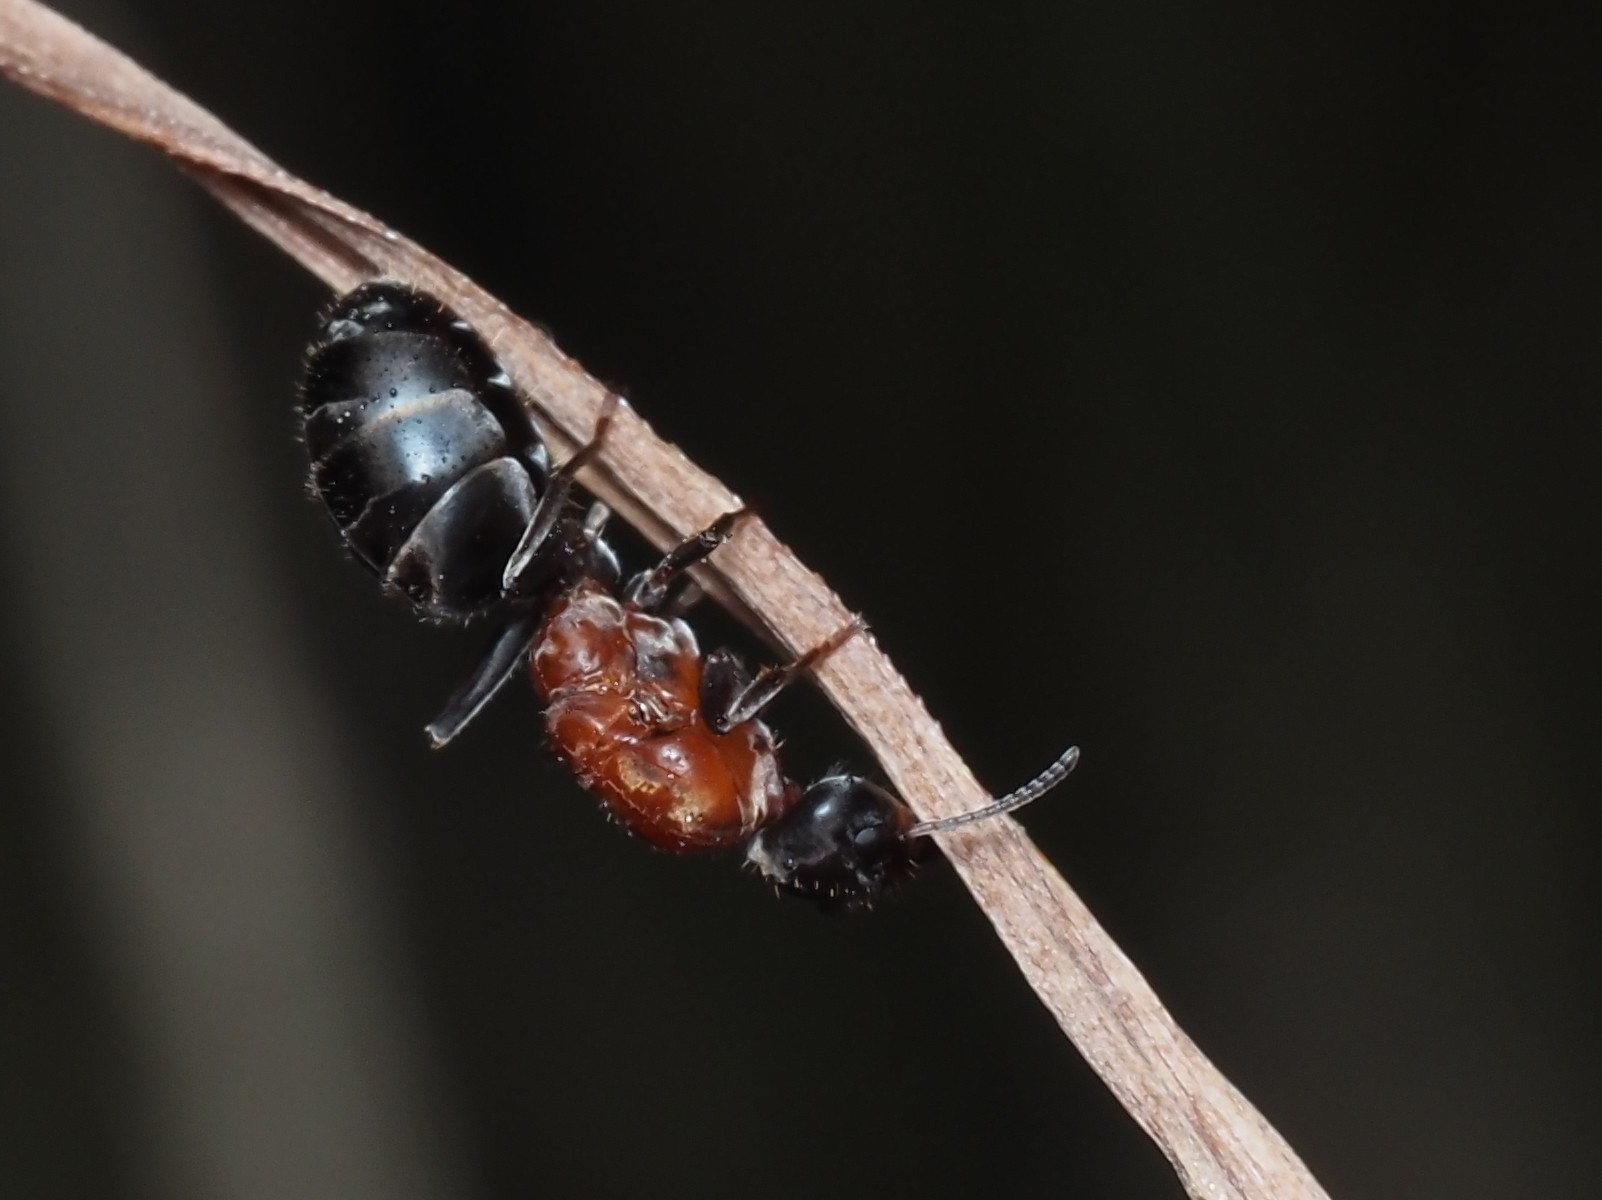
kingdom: Animalia
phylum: Arthropoda
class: Insecta
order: Hymenoptera
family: Formicidae
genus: Iridomyrmex
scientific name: Iridomyrmex
